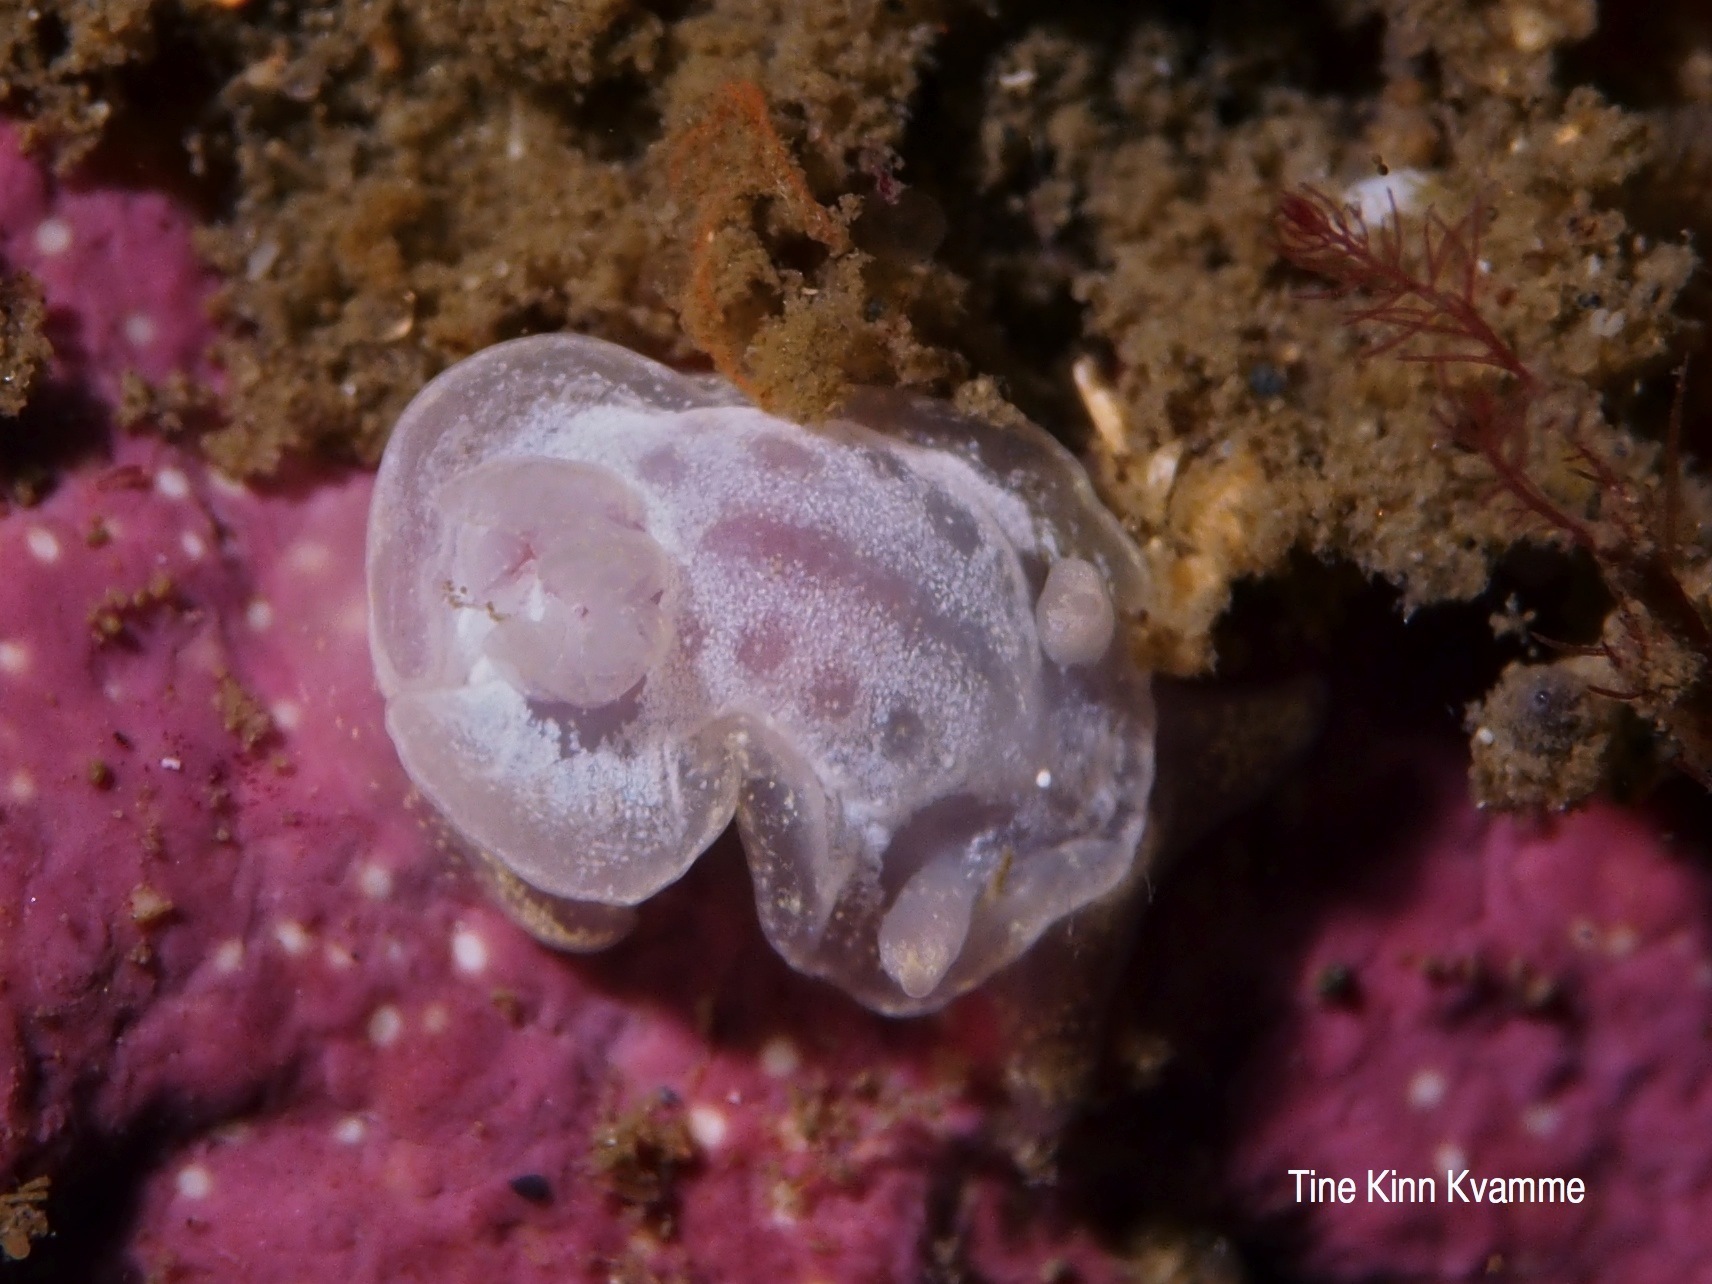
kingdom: Animalia
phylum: Mollusca
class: Gastropoda
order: Nudibranchia
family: Goniodorididae
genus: Okenia
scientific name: Okenia
